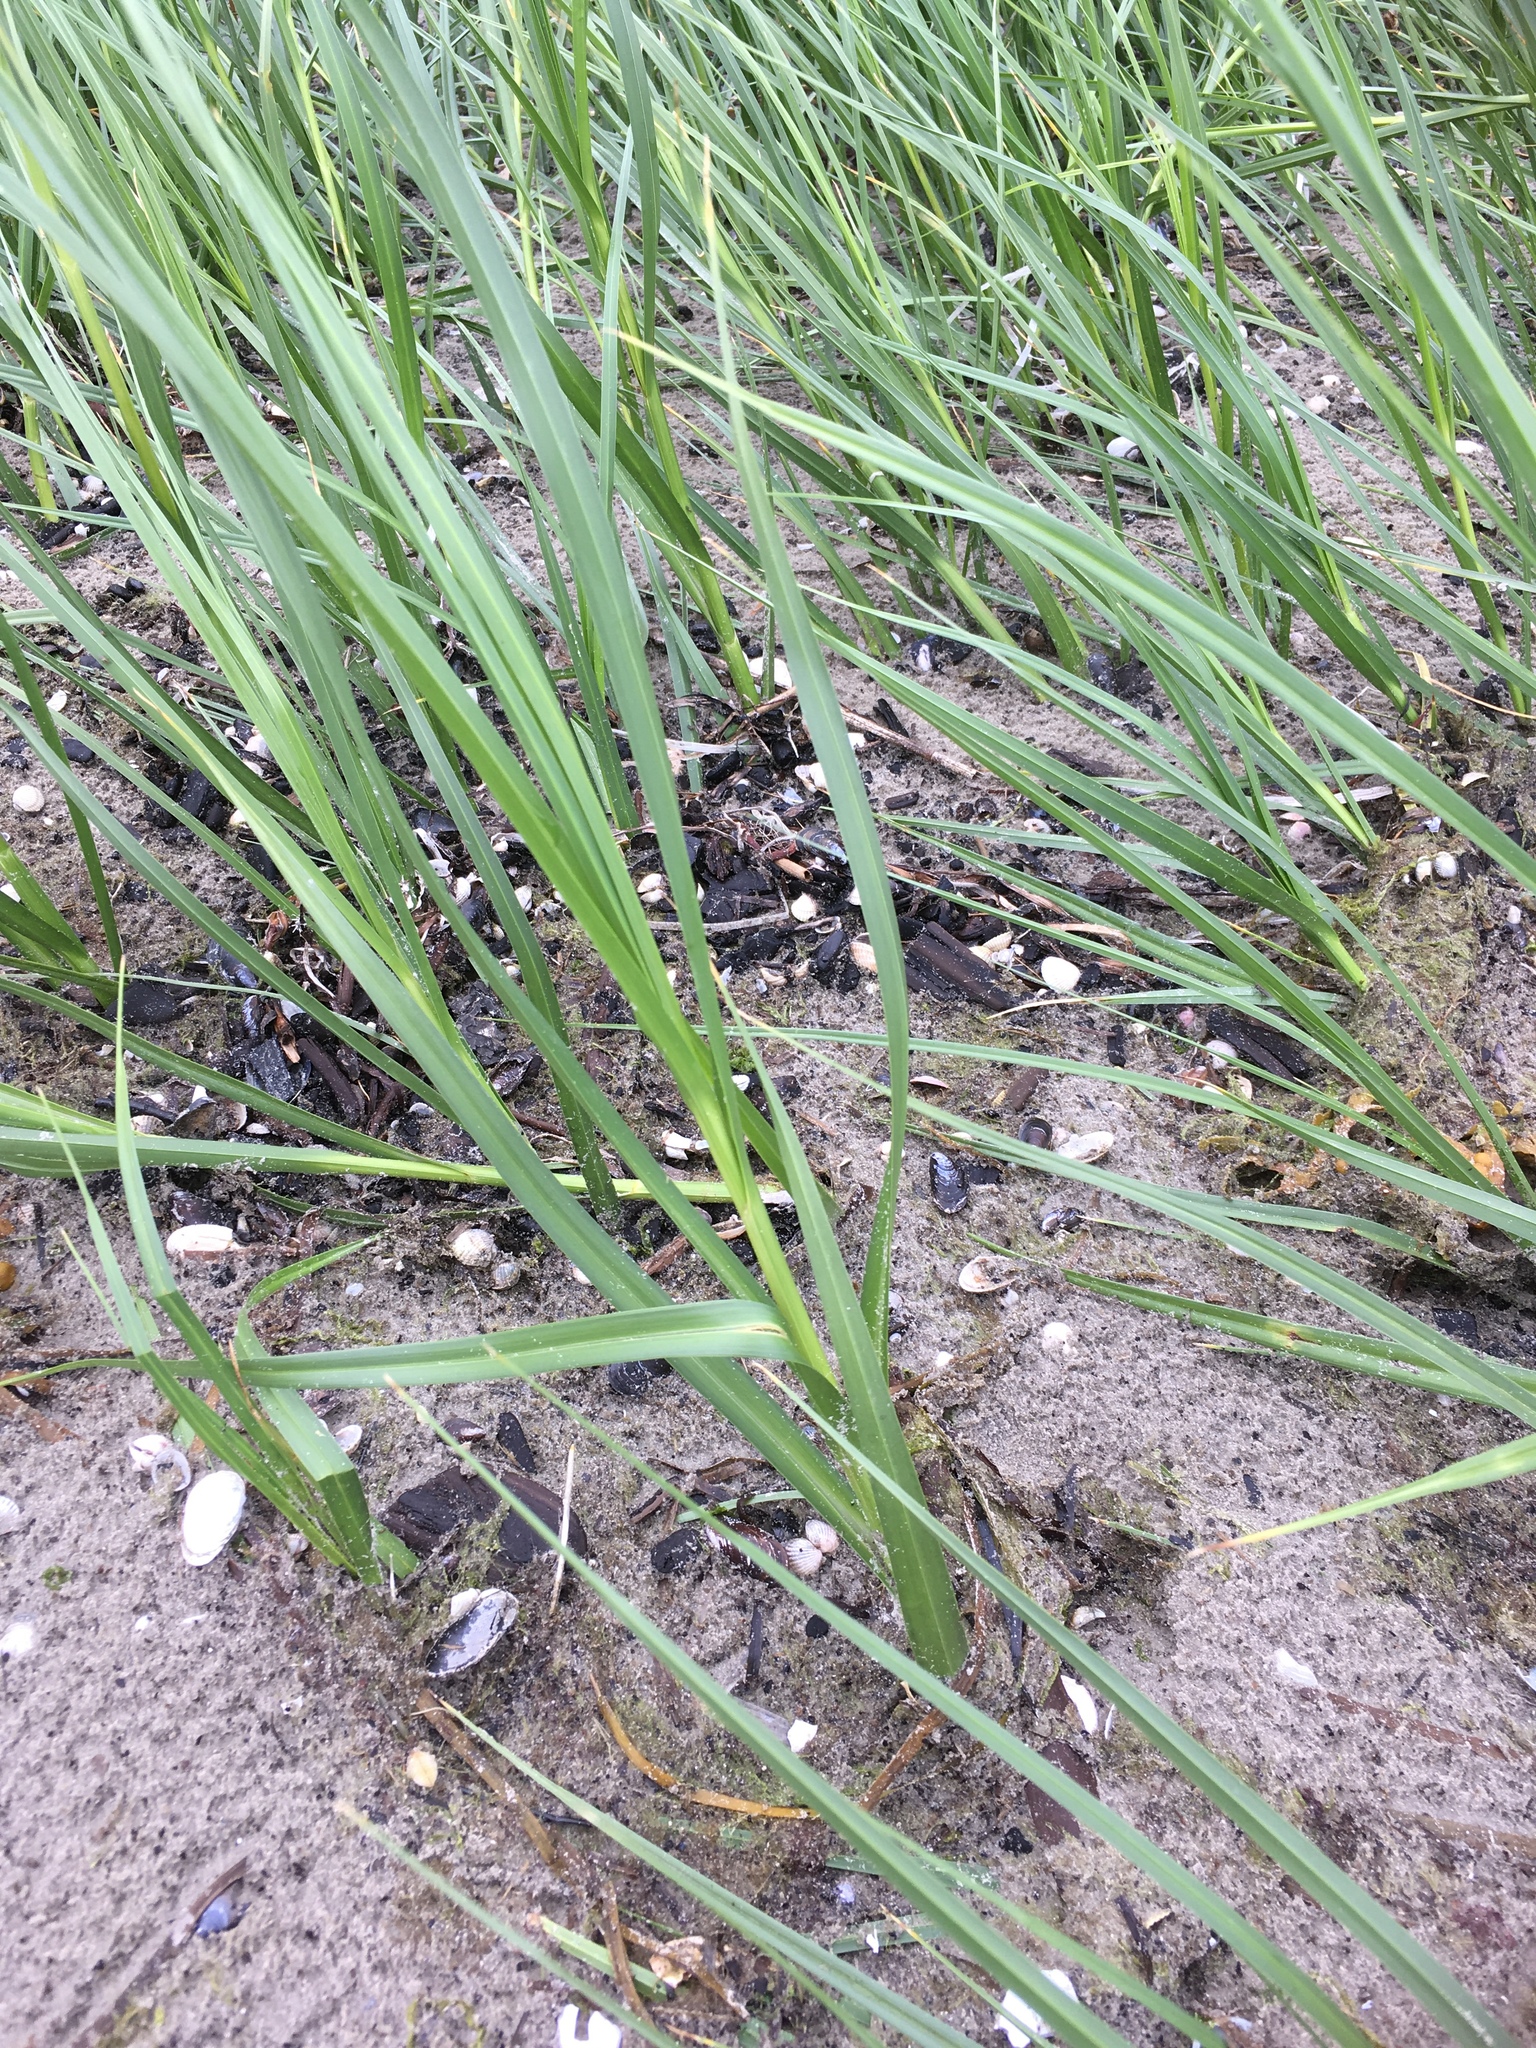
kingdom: Plantae
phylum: Tracheophyta
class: Liliopsida
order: Poales
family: Cyperaceae
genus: Bolboschoenus
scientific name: Bolboschoenus maritimus
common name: Sea club-rush
